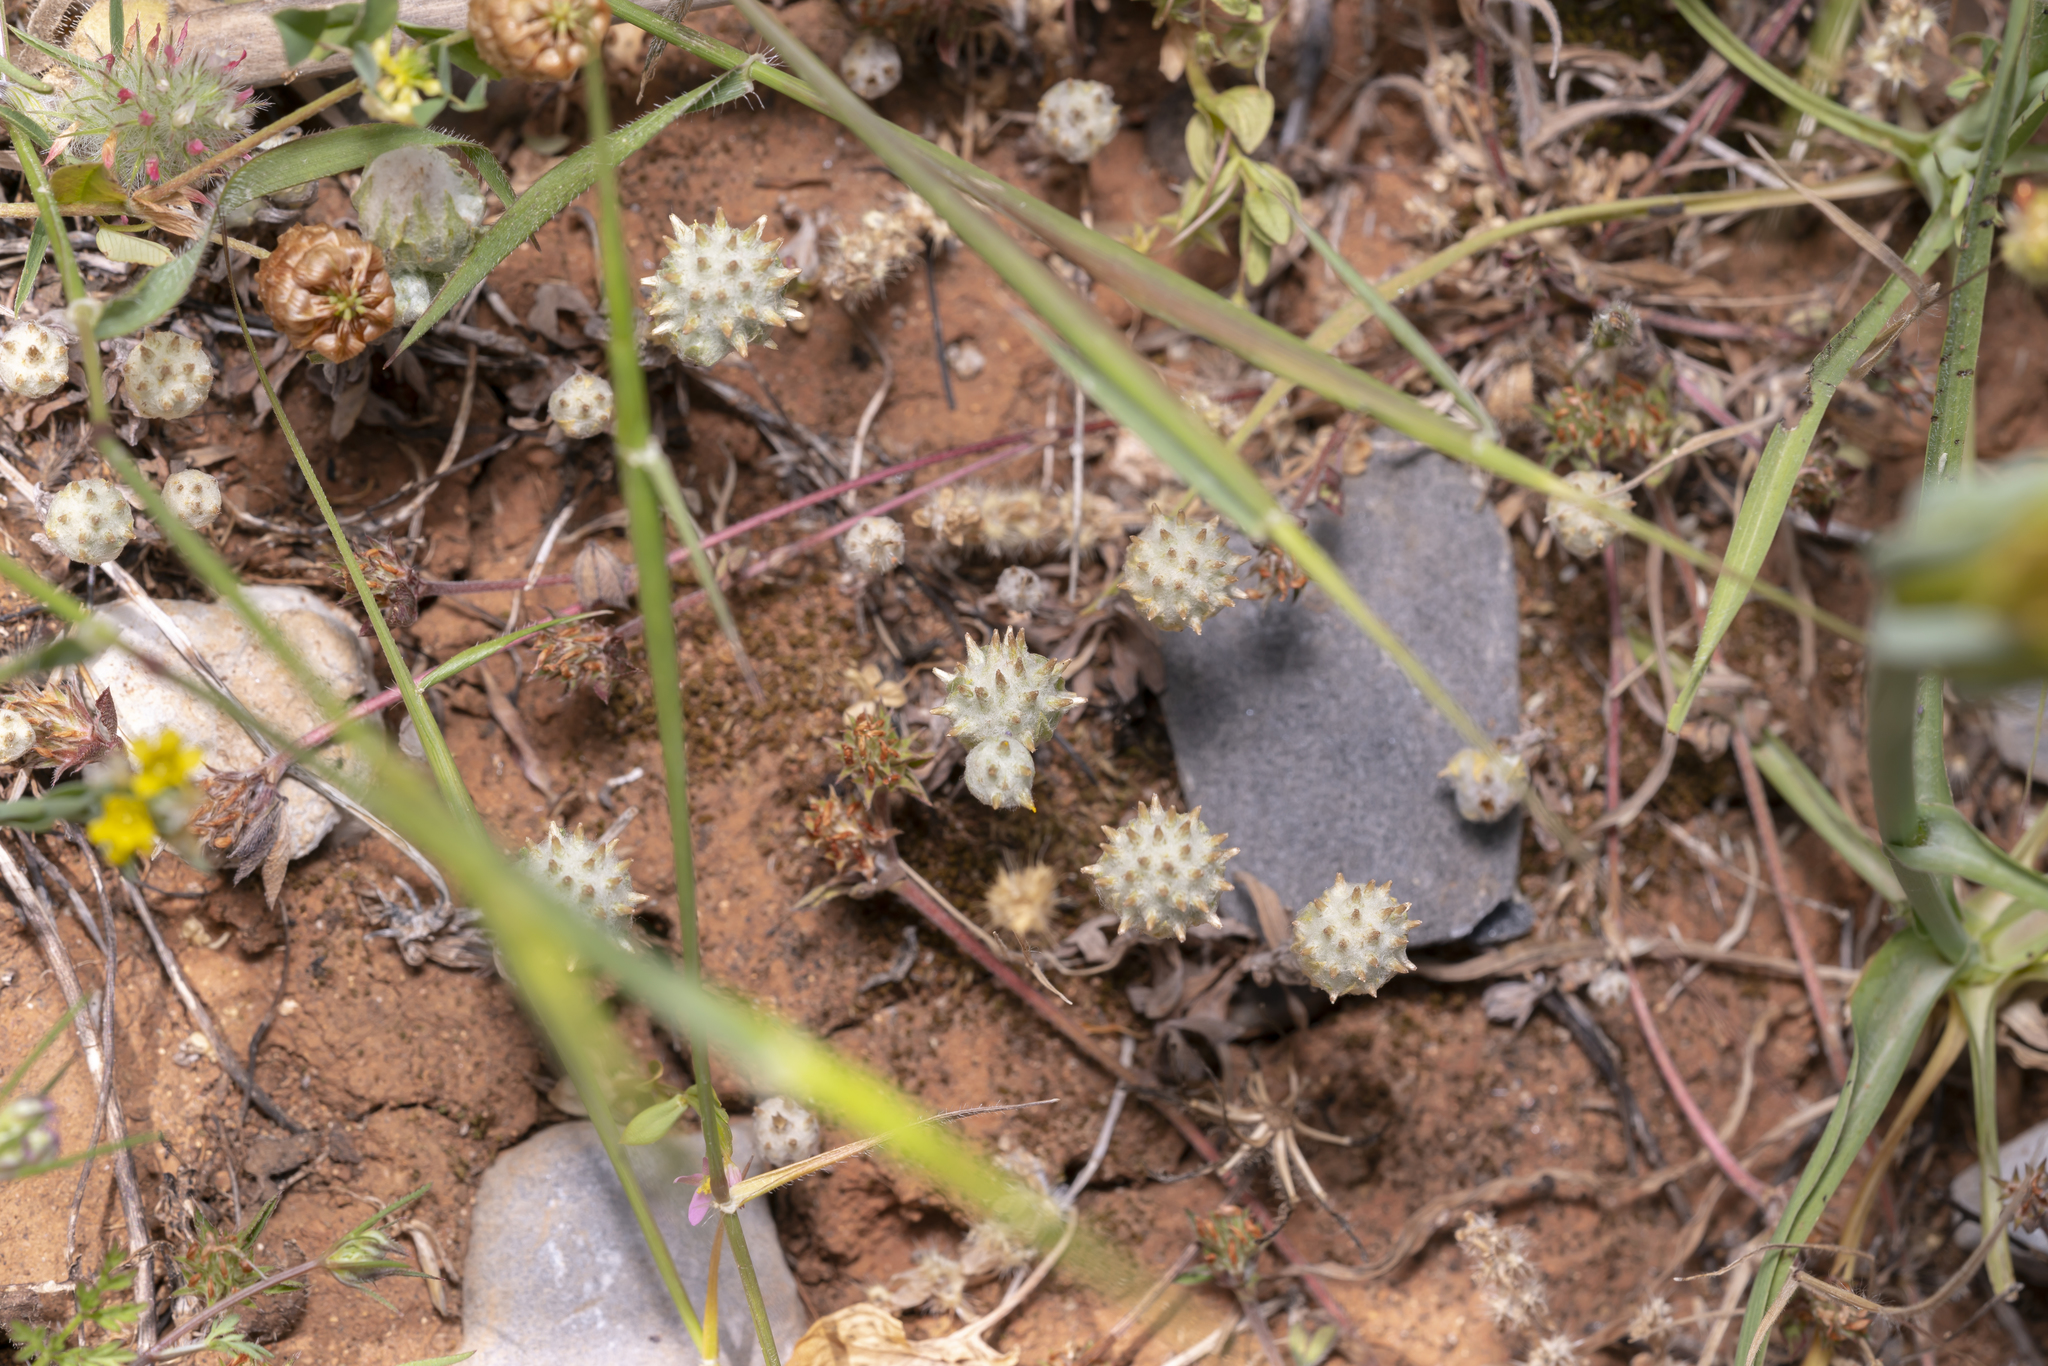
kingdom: Plantae
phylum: Tracheophyta
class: Magnoliopsida
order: Asterales
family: Asteraceae
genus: Filago
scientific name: Filago eriocephala
